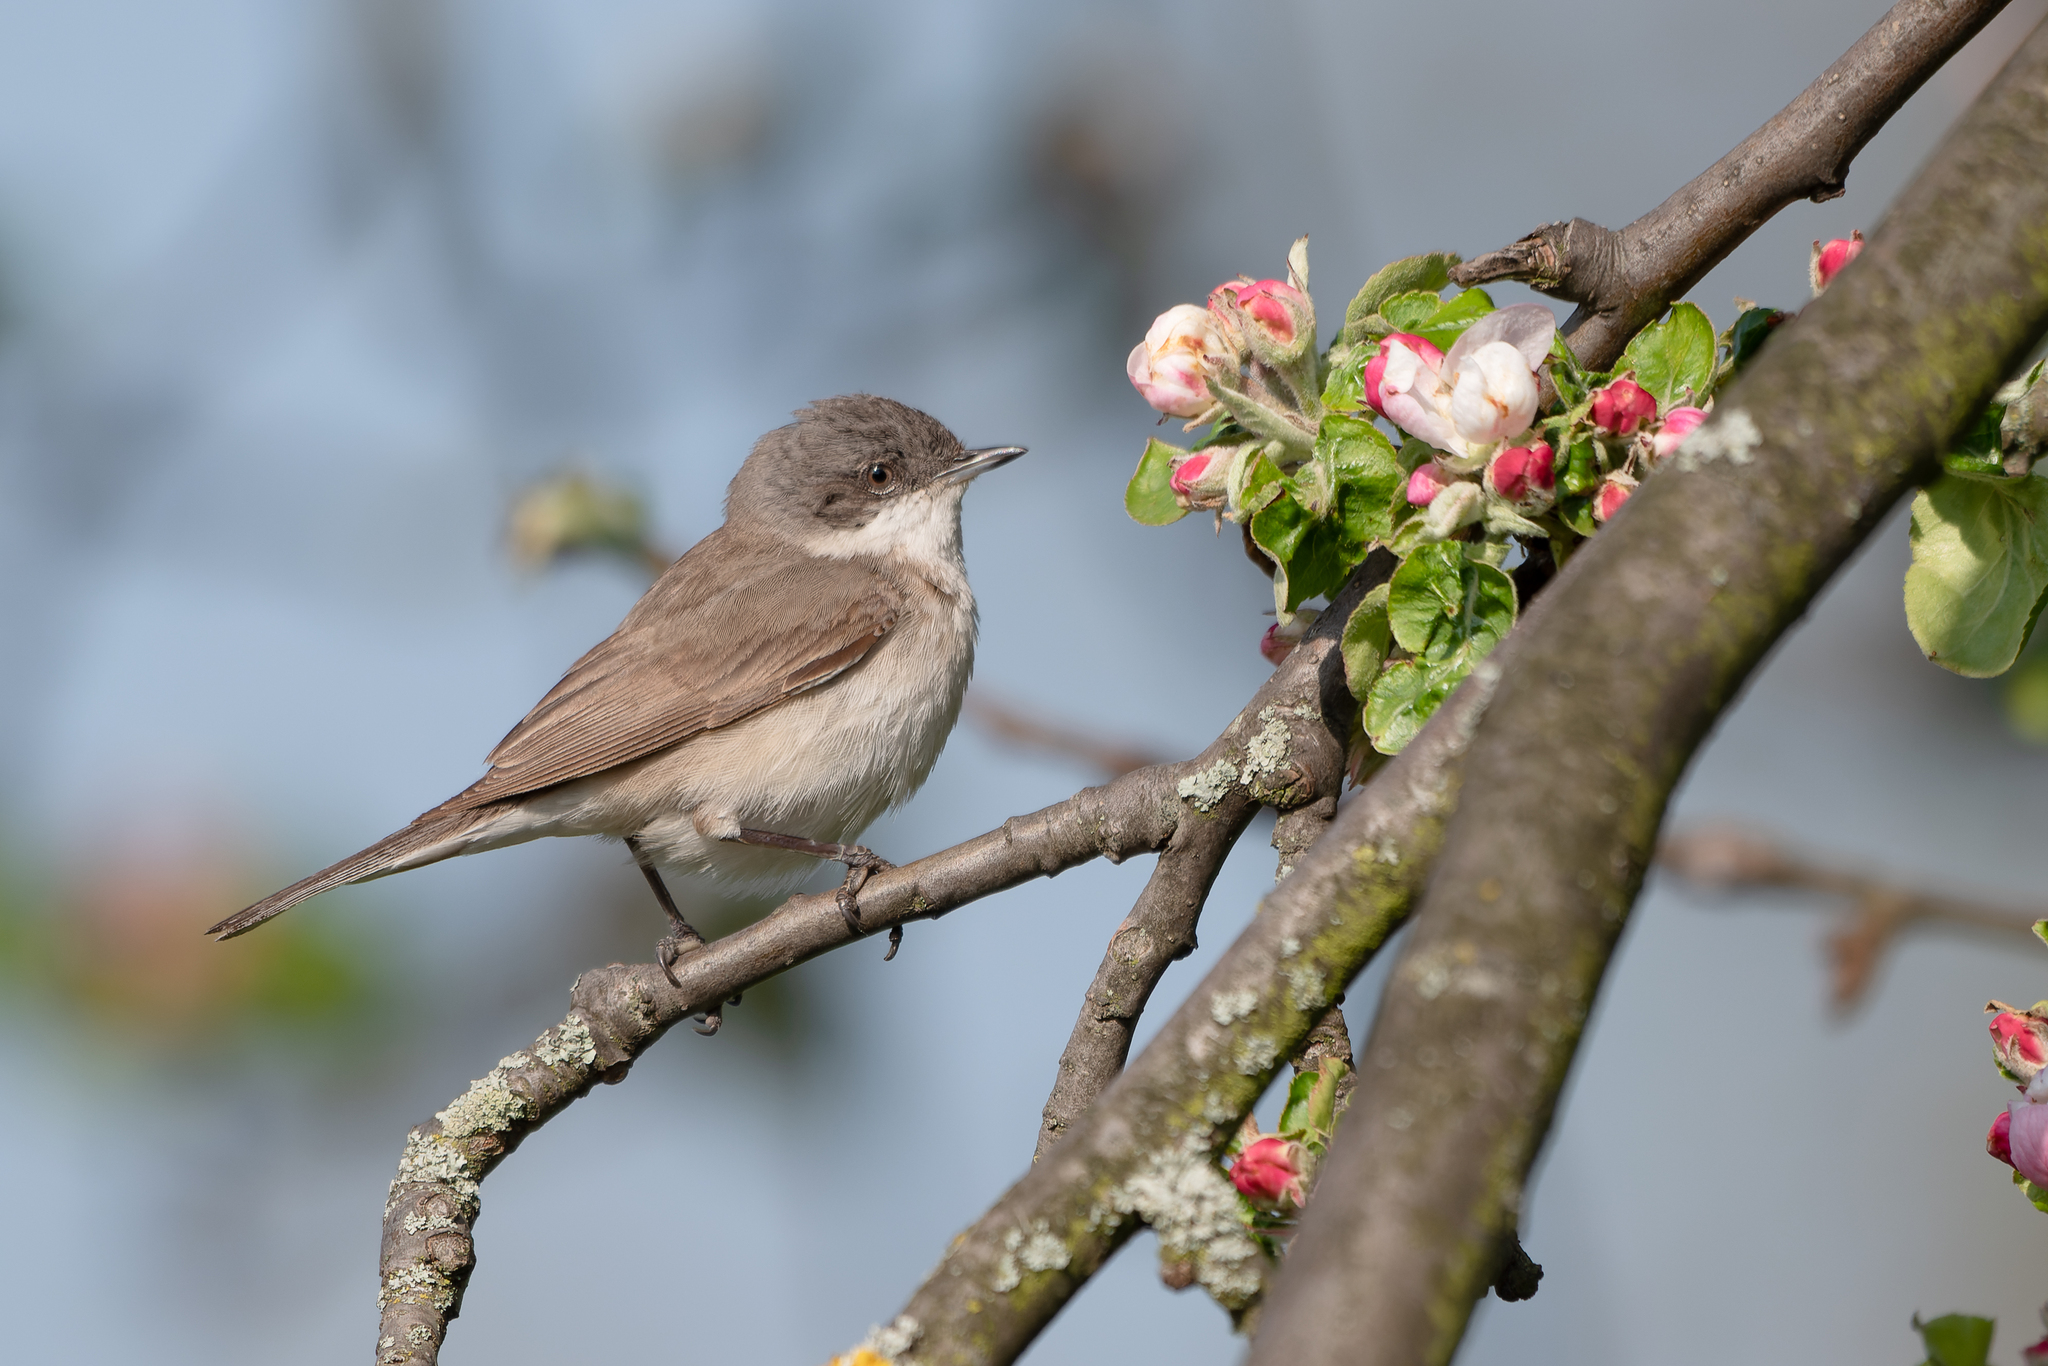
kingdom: Animalia
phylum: Chordata
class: Aves
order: Passeriformes
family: Sylviidae
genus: Sylvia
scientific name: Sylvia curruca
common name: Lesser whitethroat
